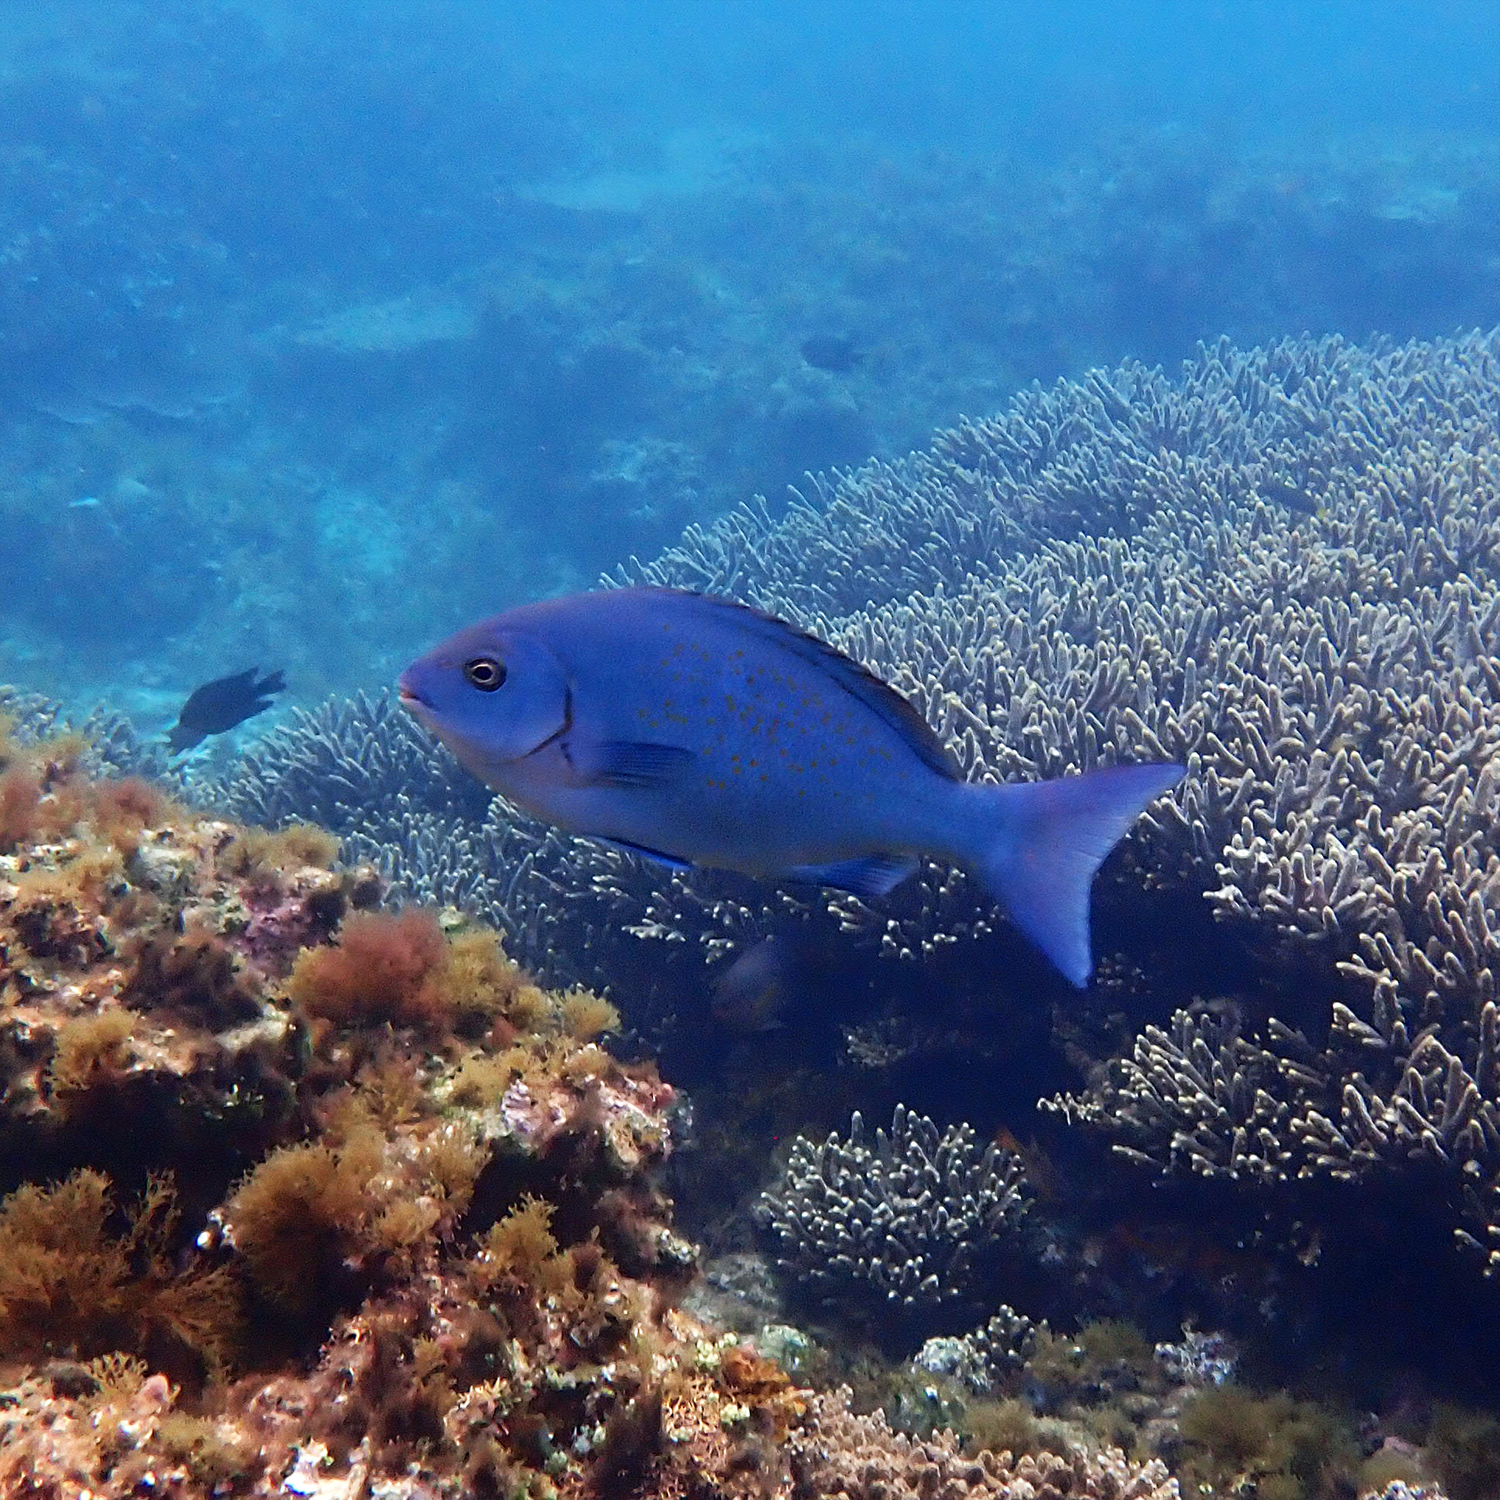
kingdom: Animalia
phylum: Chordata
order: Perciformes
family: Kyphosidae
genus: Girella
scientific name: Girella cyanea
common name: Bluefish
